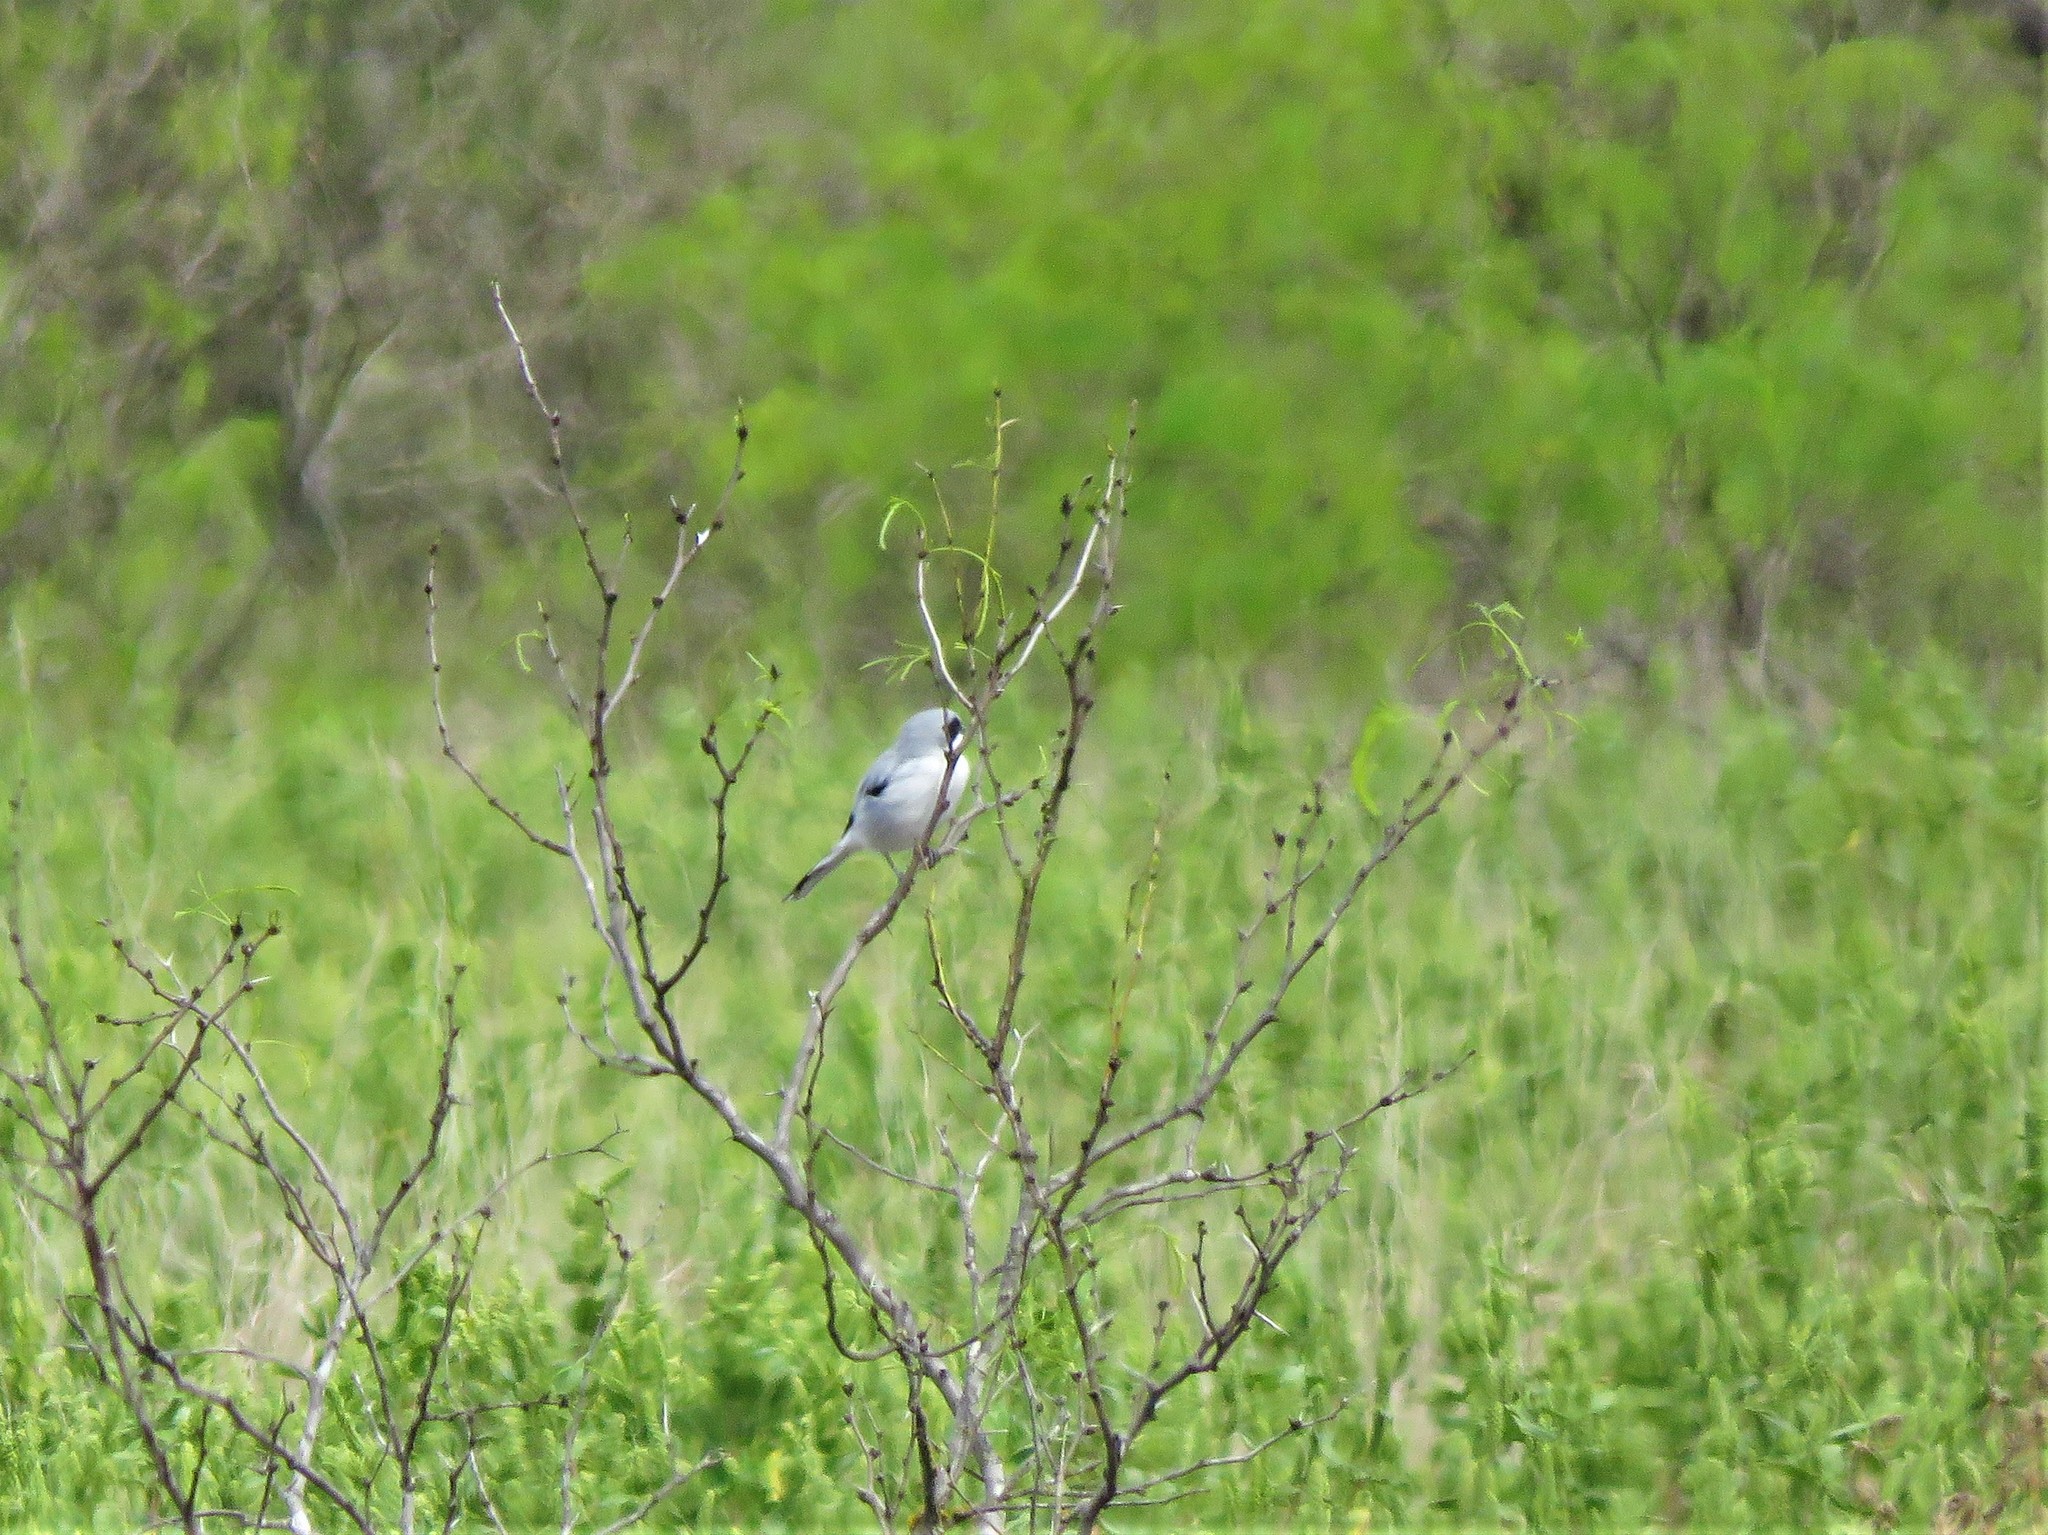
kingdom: Animalia
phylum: Chordata
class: Aves
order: Passeriformes
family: Laniidae
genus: Lanius
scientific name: Lanius ludovicianus
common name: Loggerhead shrike
